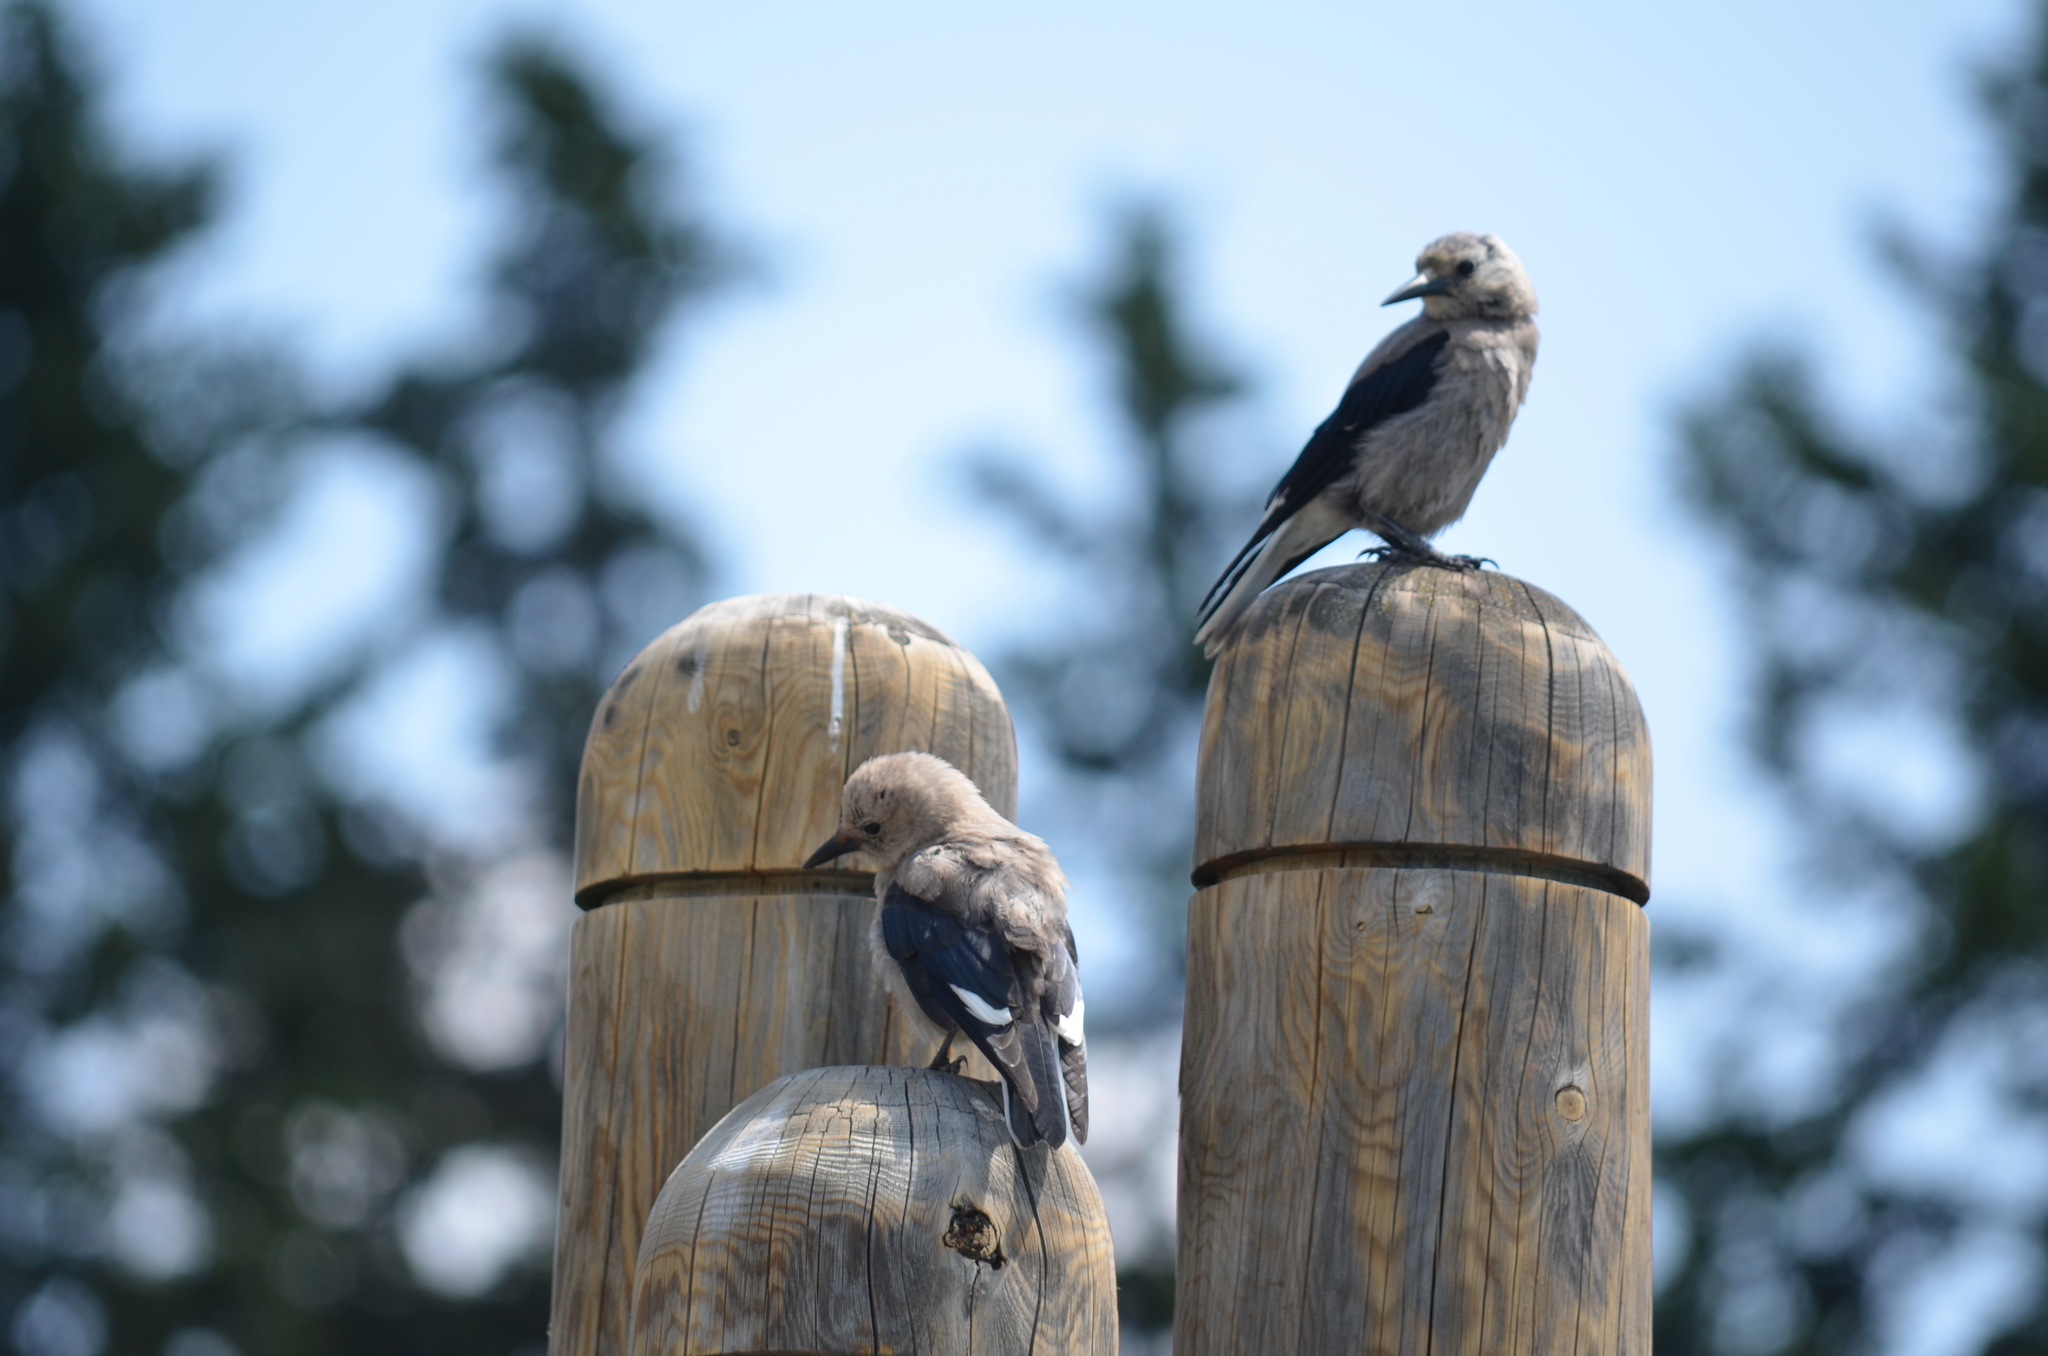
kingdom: Animalia
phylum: Chordata
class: Aves
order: Passeriformes
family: Corvidae
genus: Nucifraga
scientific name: Nucifraga columbiana
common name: Clark's nutcracker
